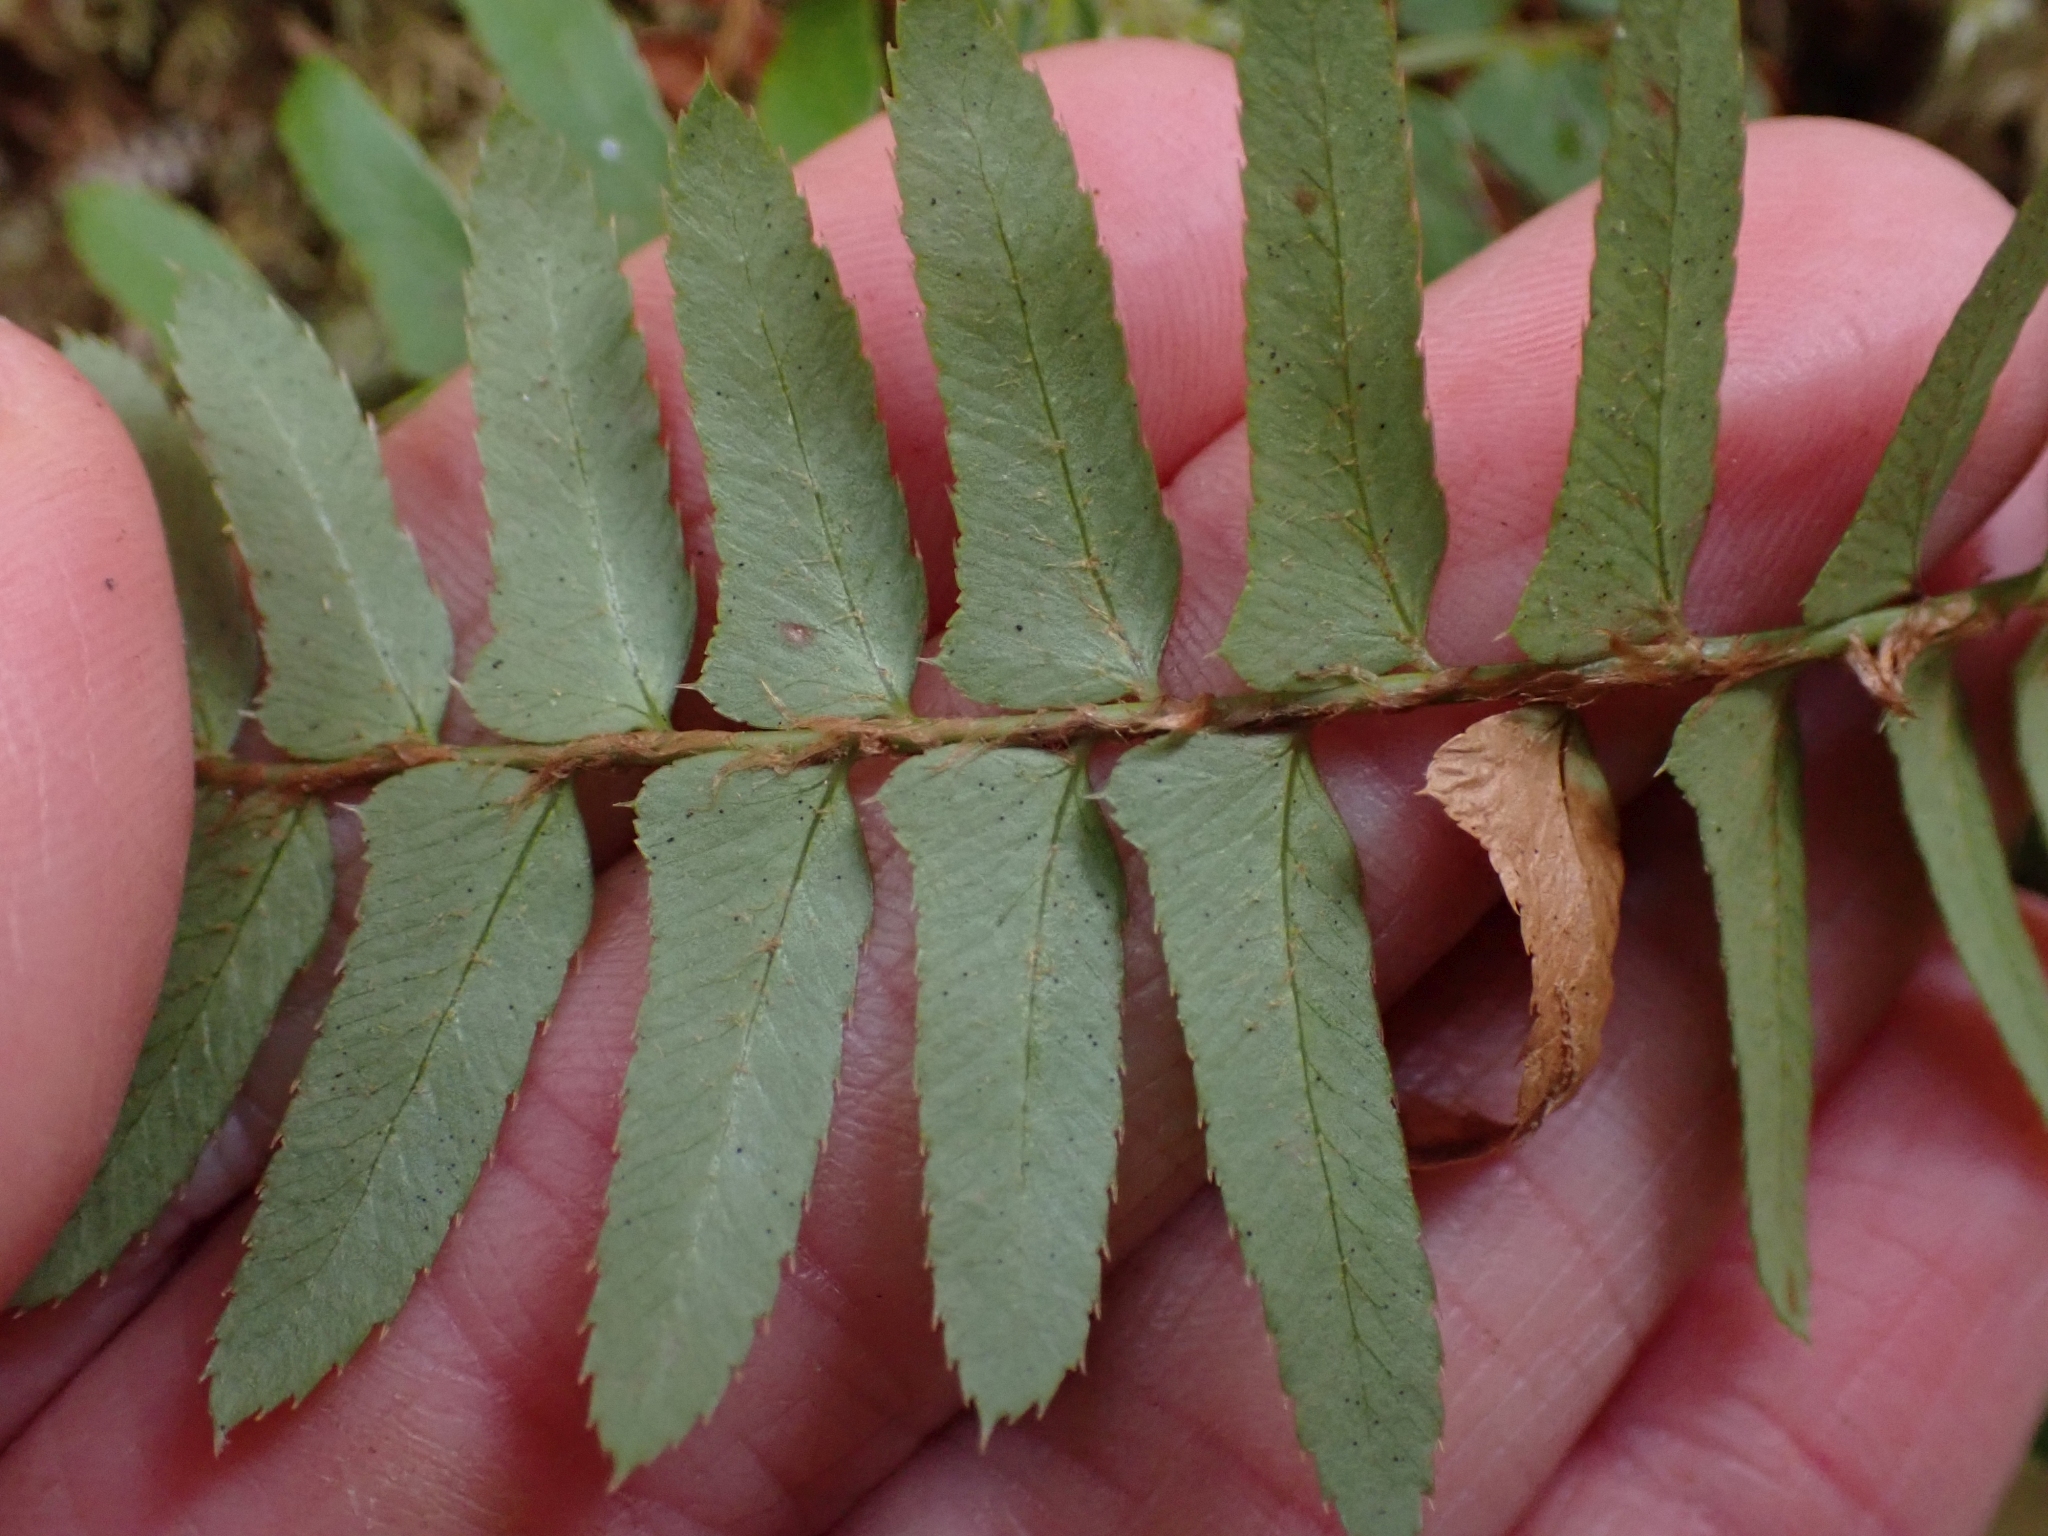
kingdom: Plantae
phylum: Tracheophyta
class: Polypodiopsida
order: Polypodiales
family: Dryopteridaceae
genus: Polystichum
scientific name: Polystichum munitum
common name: Western sword-fern
